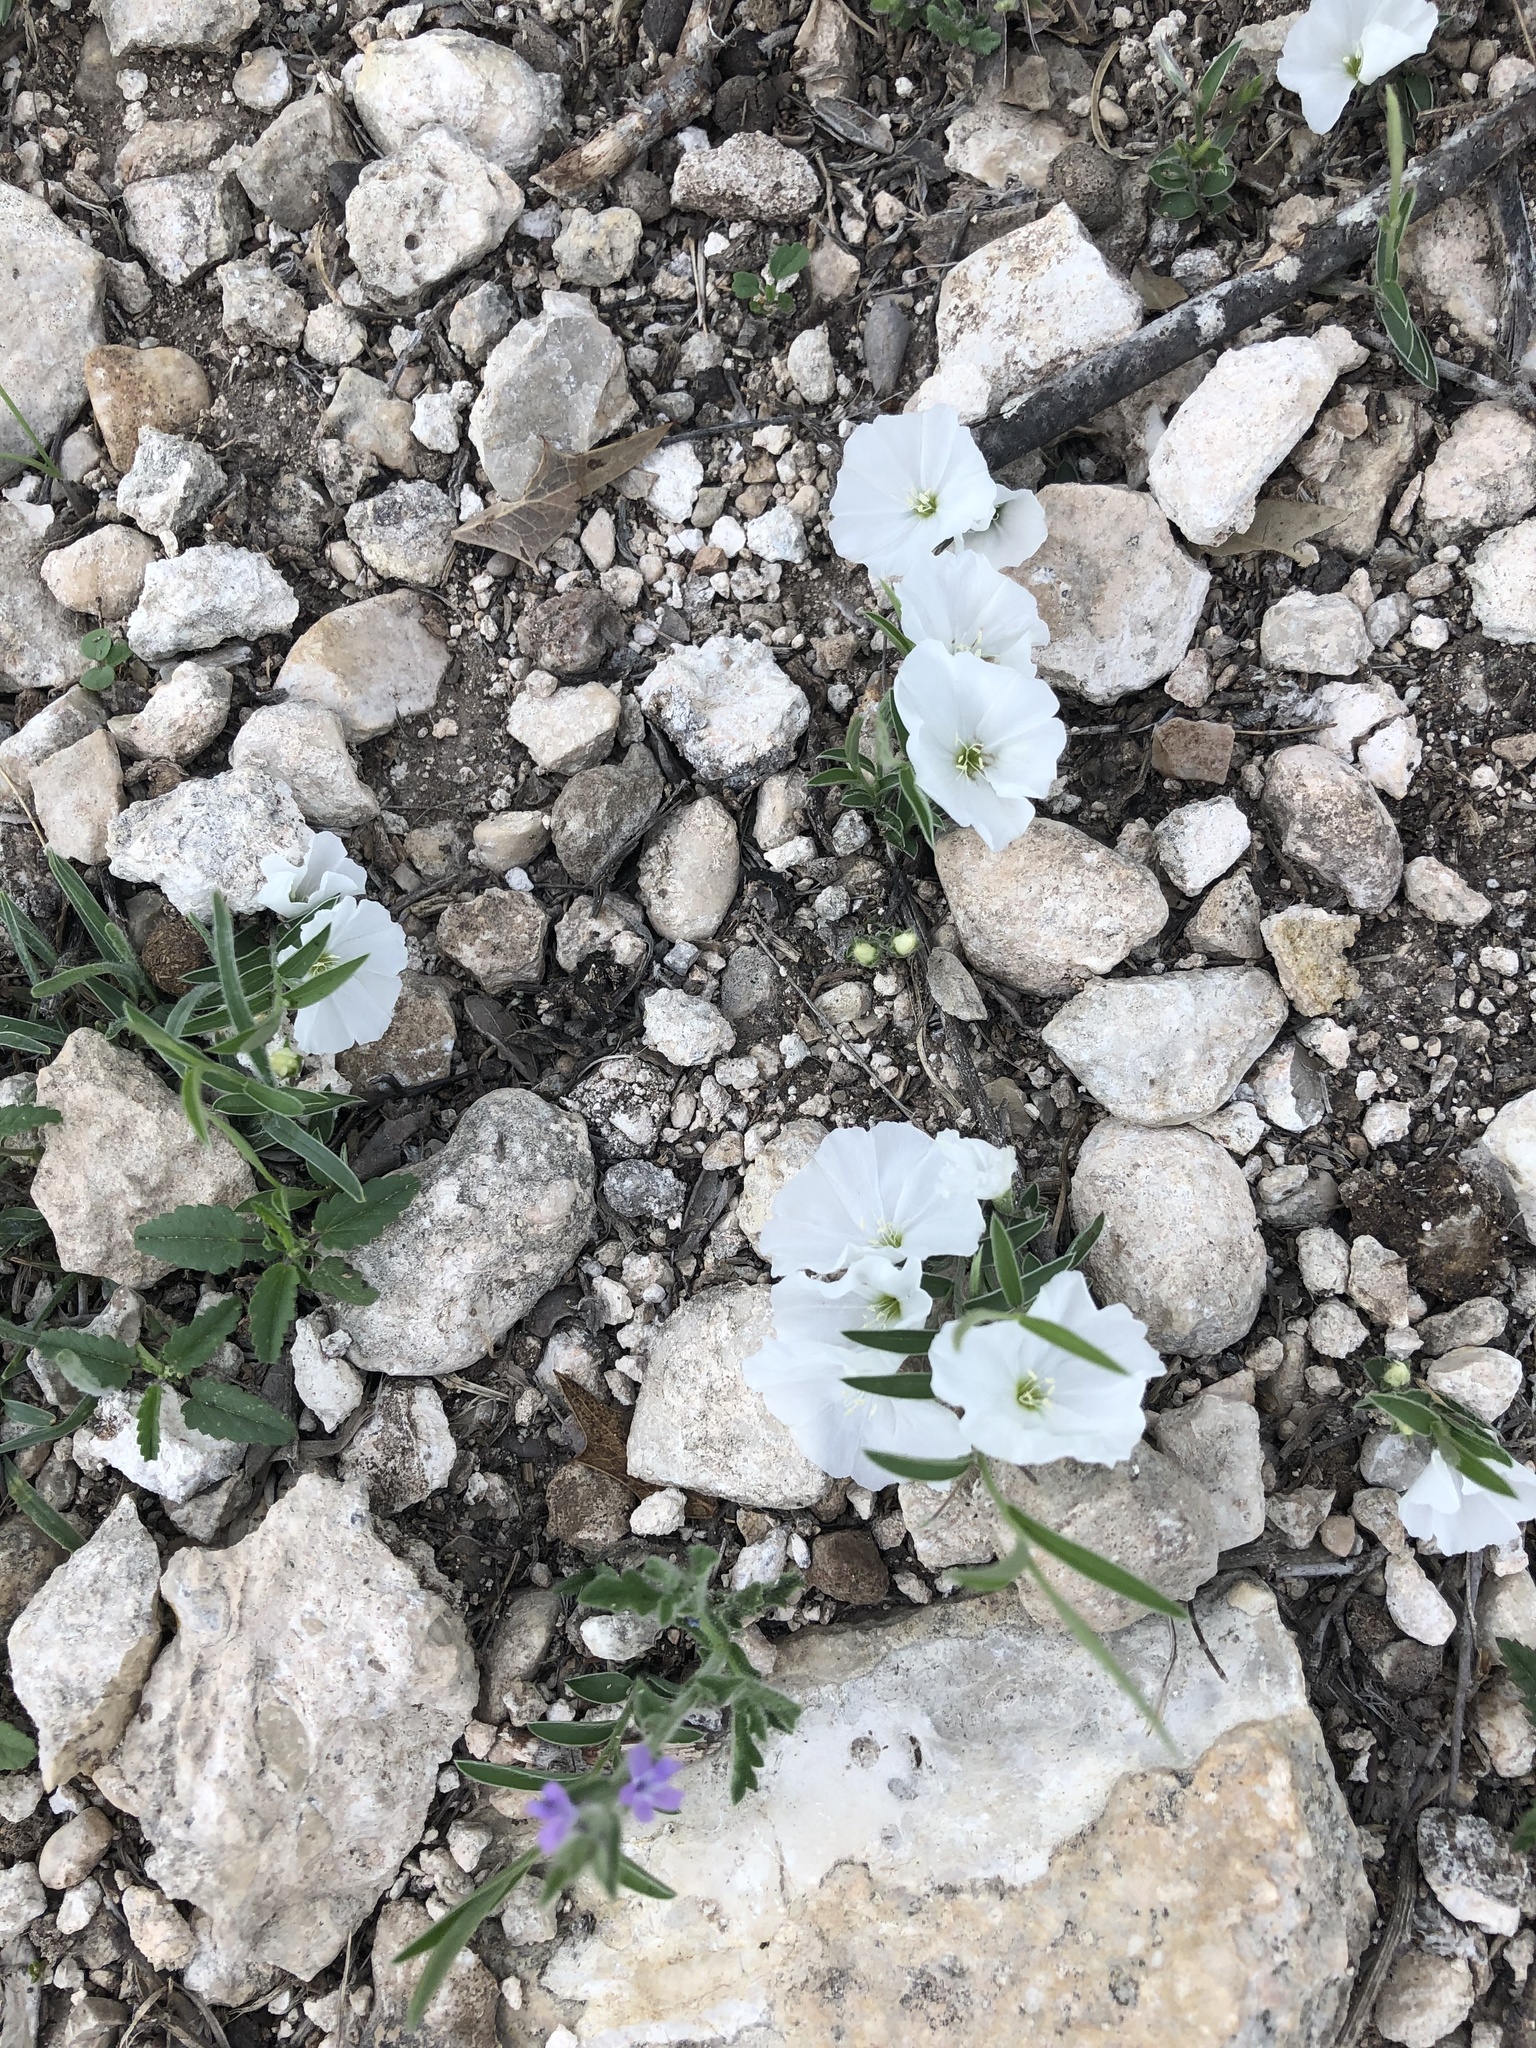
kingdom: Plantae
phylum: Tracheophyta
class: Magnoliopsida
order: Solanales
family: Convolvulaceae
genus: Evolvulus
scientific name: Evolvulus sericeus
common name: Blue dots
